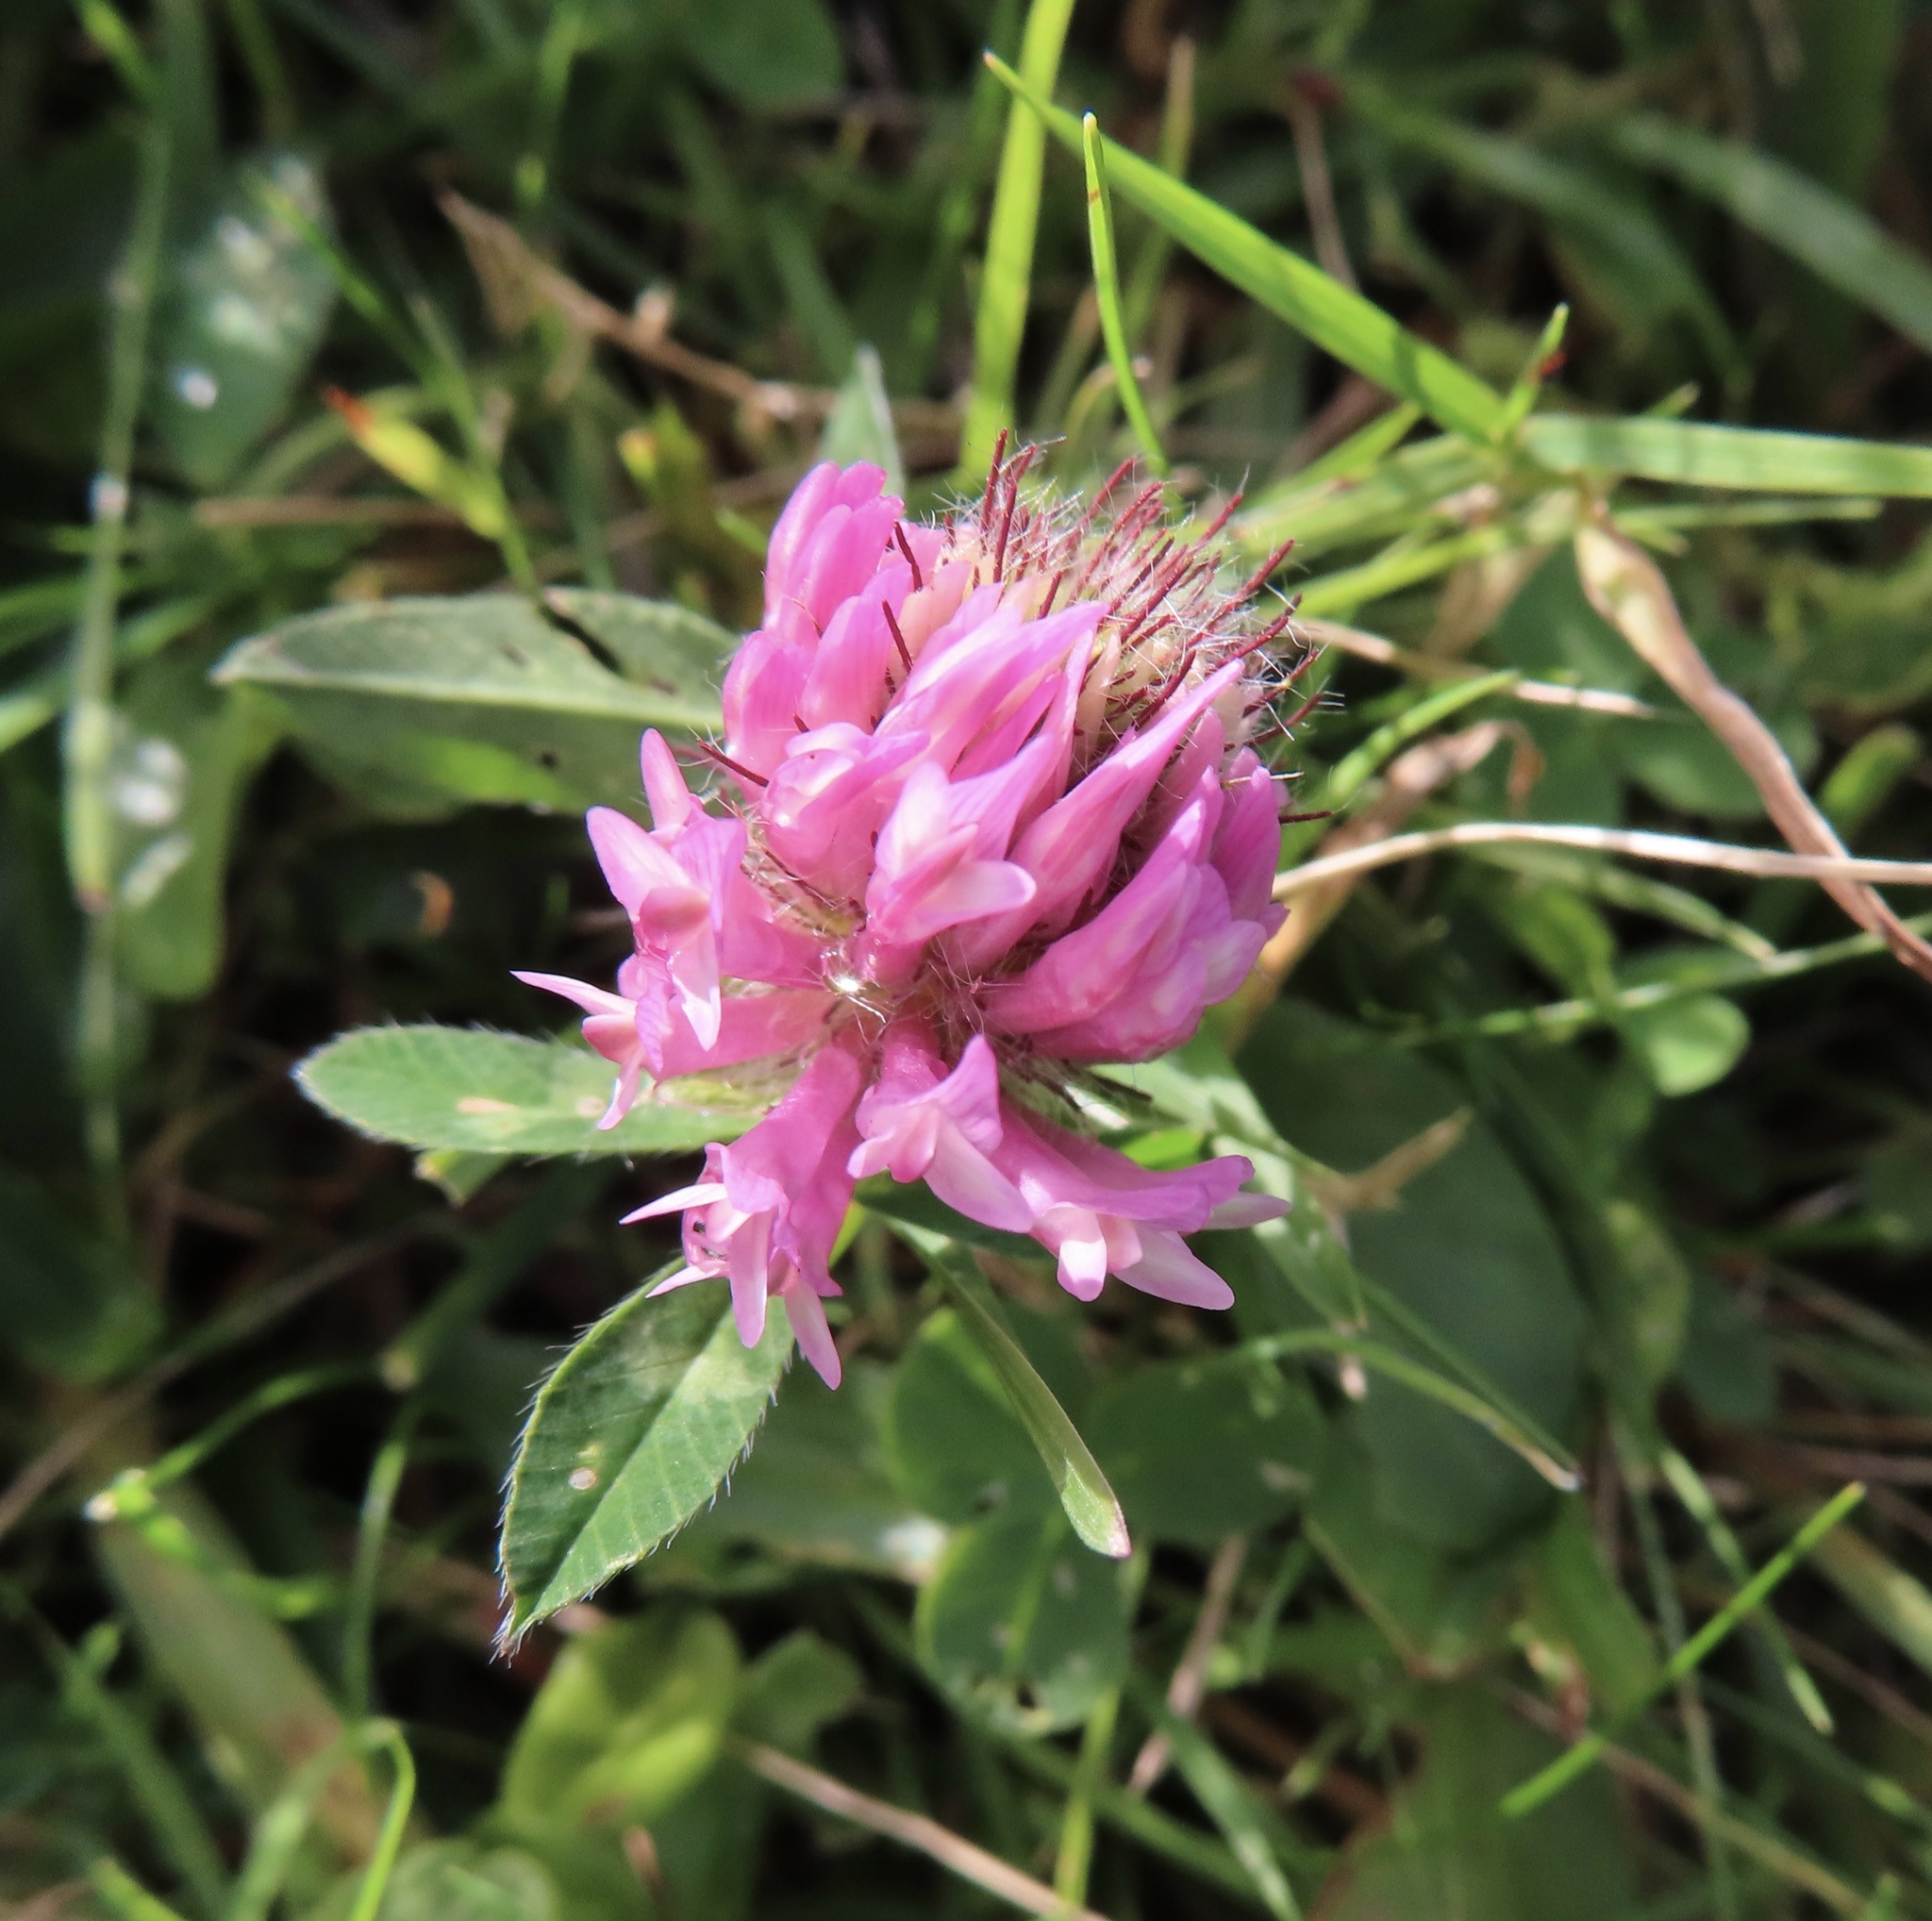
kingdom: Plantae
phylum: Tracheophyta
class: Magnoliopsida
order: Fabales
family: Fabaceae
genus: Trifolium
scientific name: Trifolium pratense
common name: Red clover
